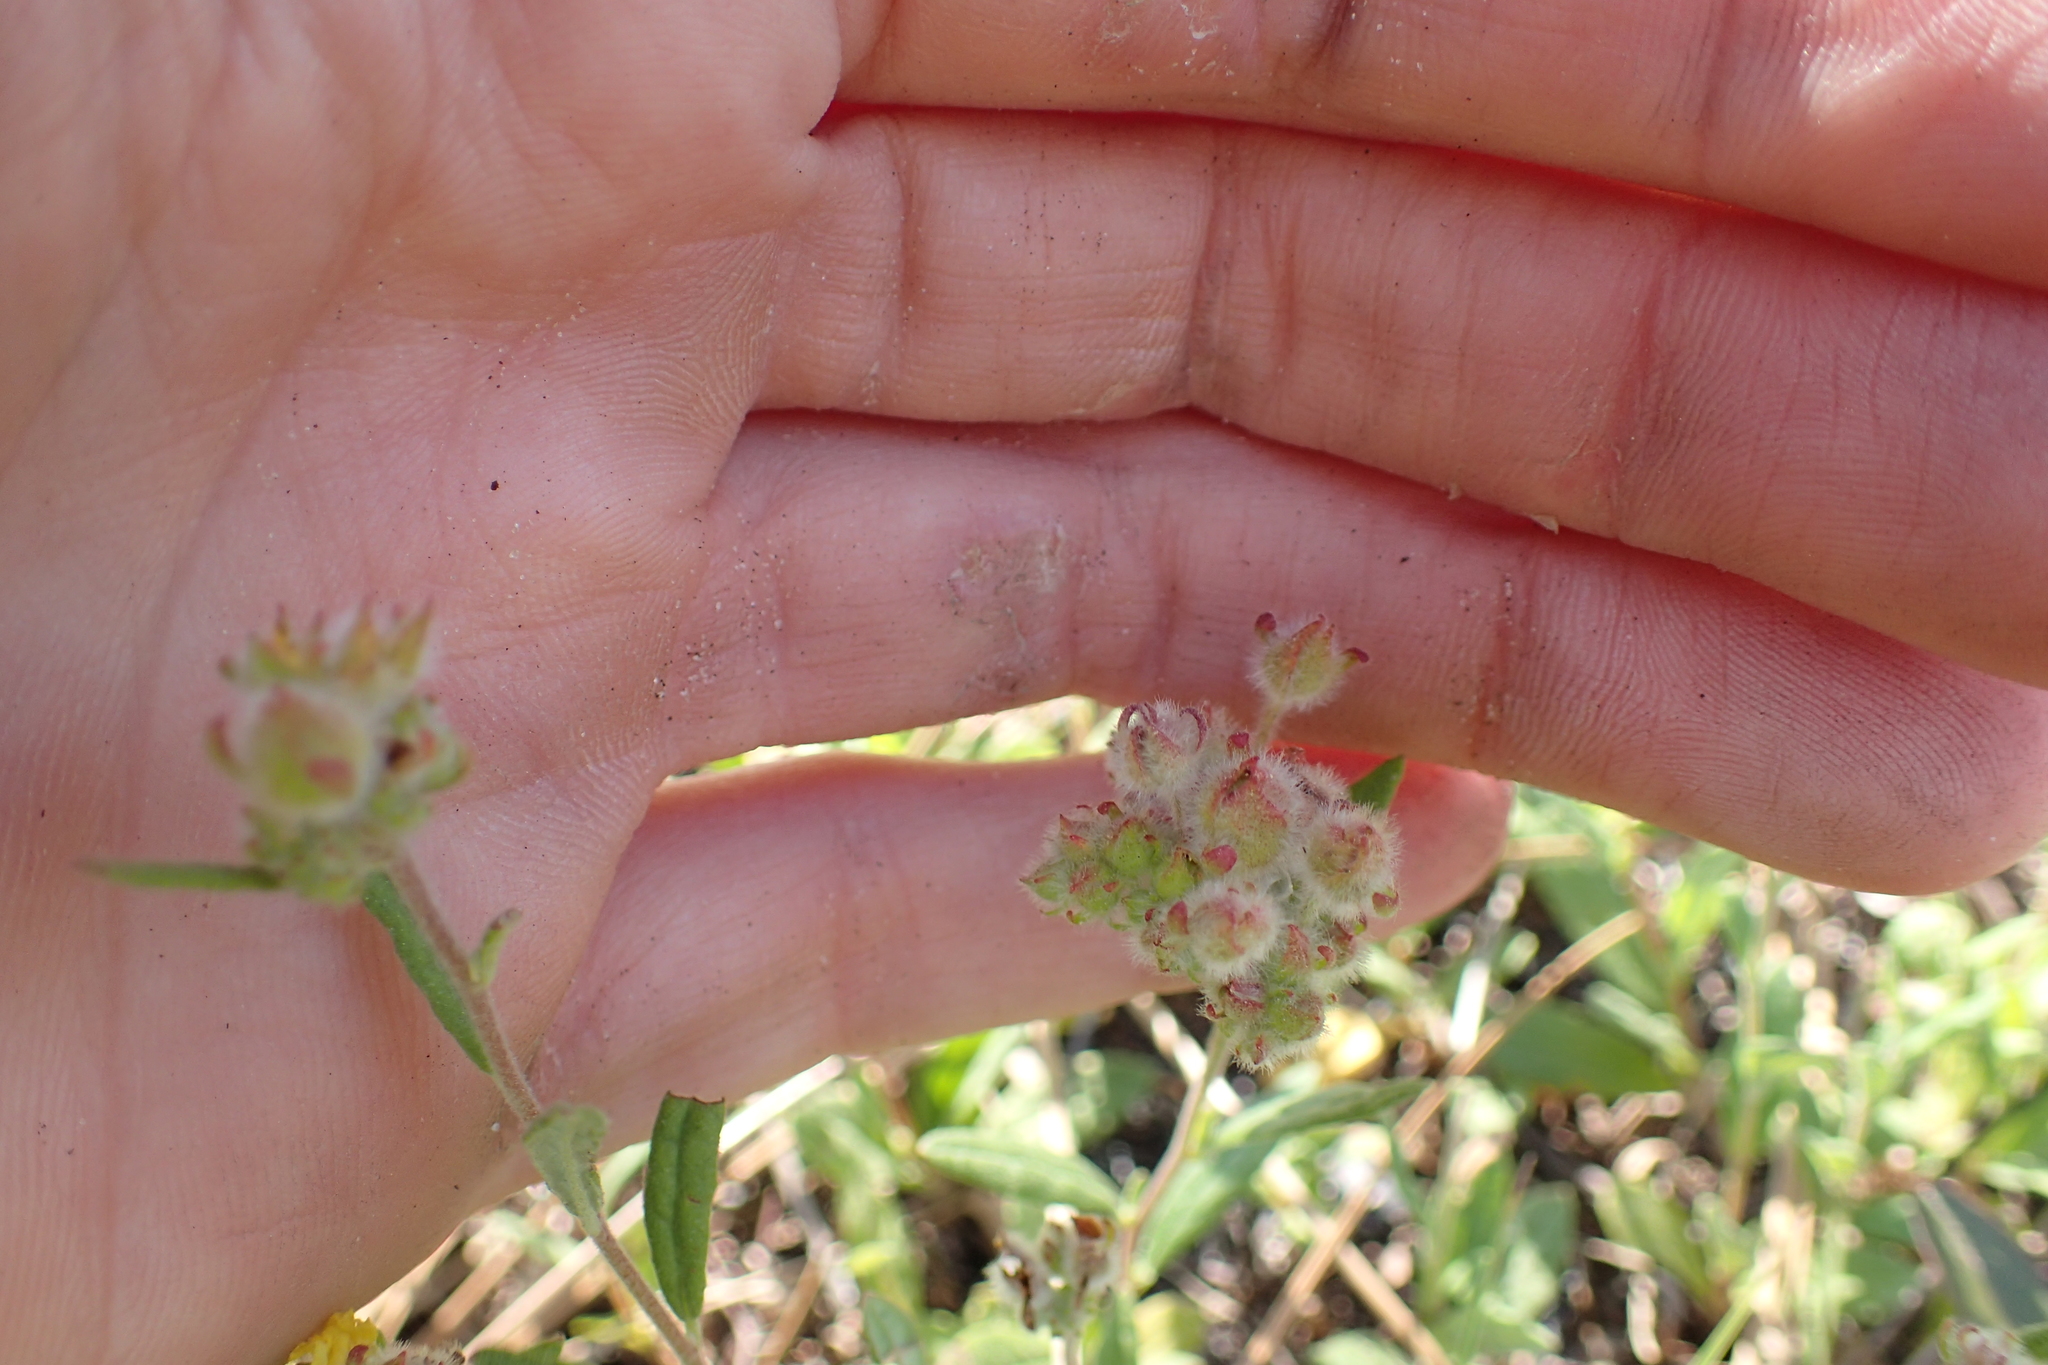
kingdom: Plantae
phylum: Tracheophyta
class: Magnoliopsida
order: Malvales
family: Cistaceae
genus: Crocanthemum
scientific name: Crocanthemum corymbosum
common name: Pinebarren sun-rose
